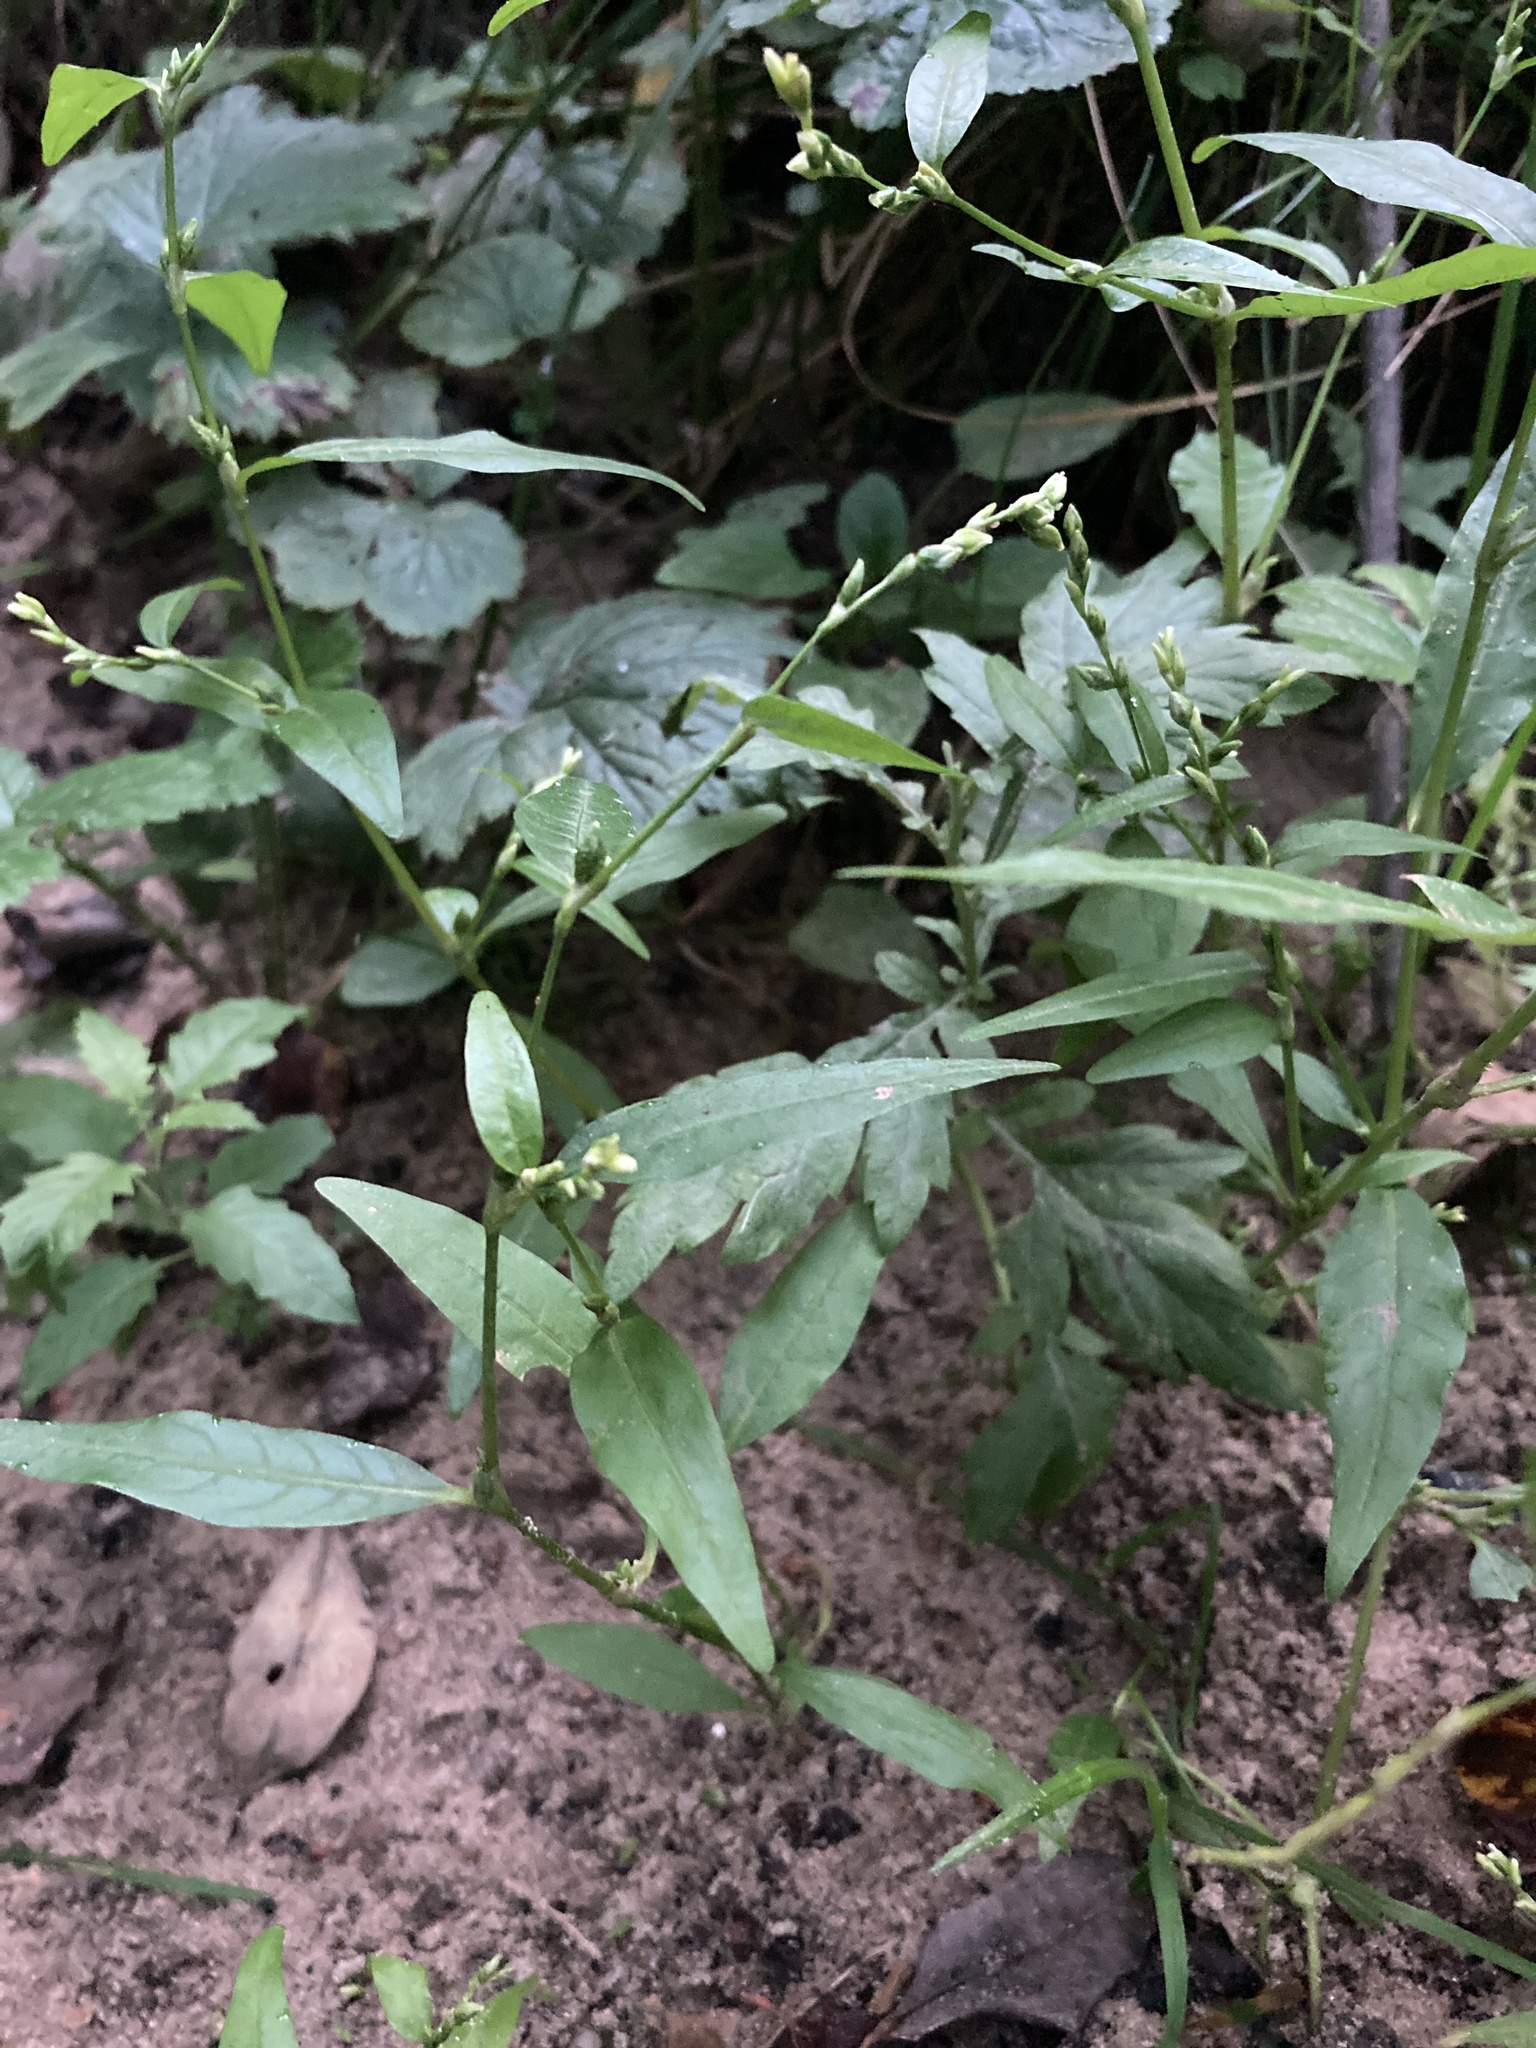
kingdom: Plantae
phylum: Tracheophyta
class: Magnoliopsida
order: Caryophyllales
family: Polygonaceae
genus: Persicaria
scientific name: Persicaria hydropiper
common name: Water-pepper
